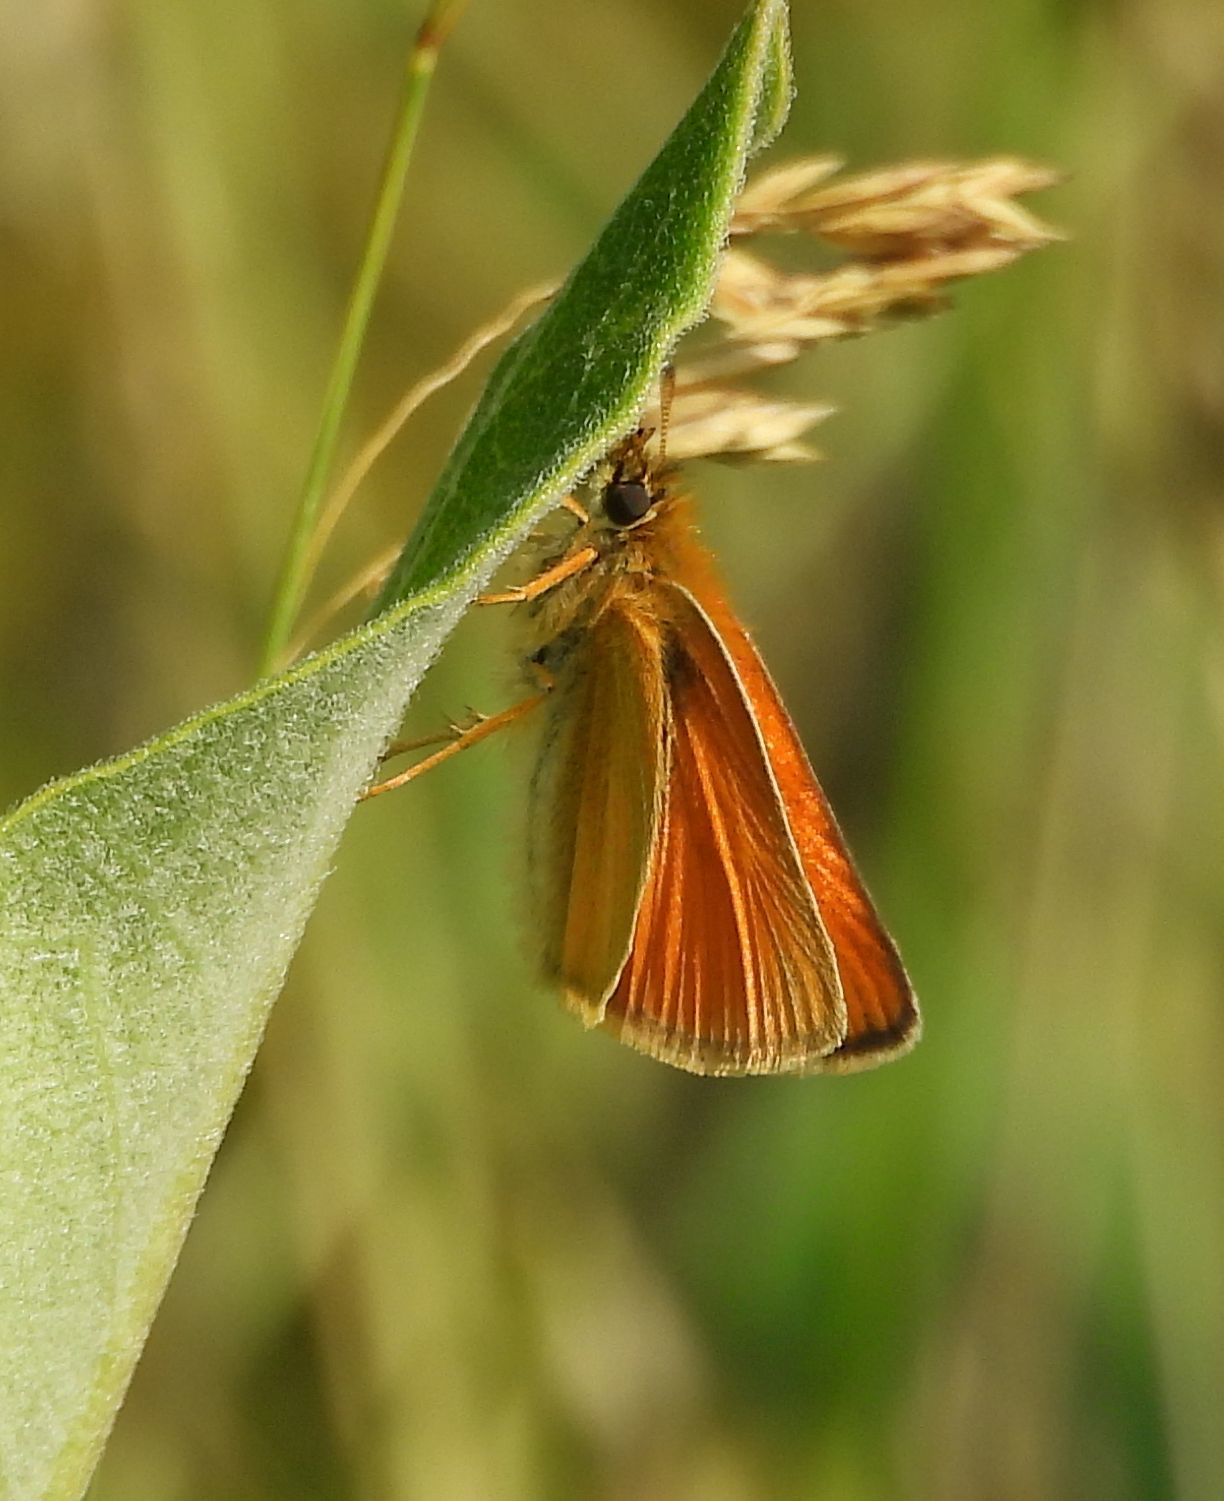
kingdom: Animalia
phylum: Arthropoda
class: Insecta
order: Lepidoptera
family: Hesperiidae
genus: Thymelicus
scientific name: Thymelicus lineola
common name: Essex skipper
